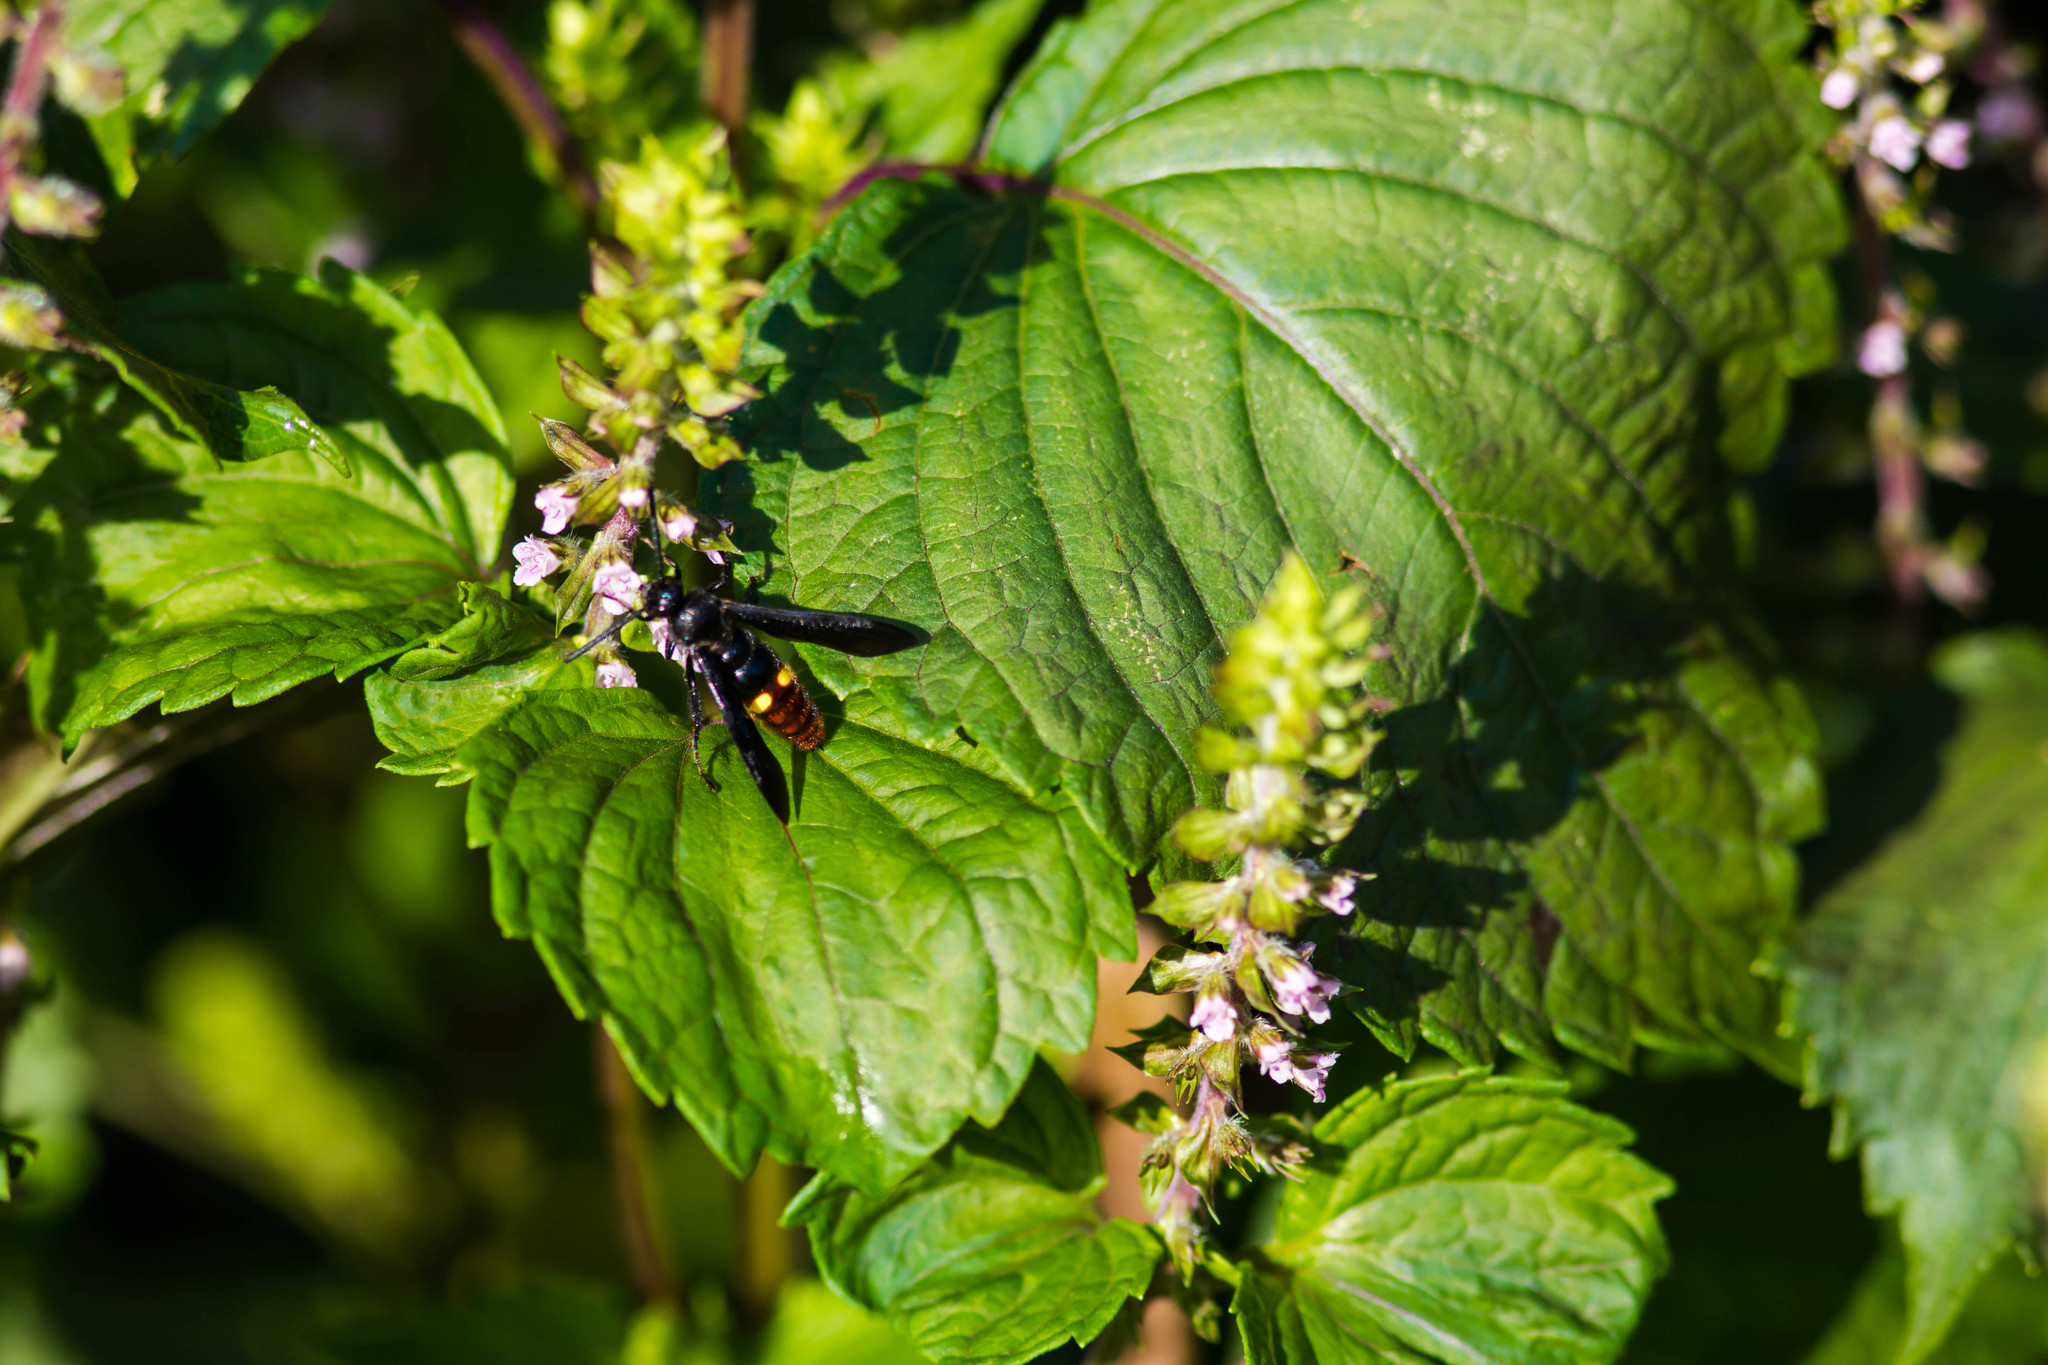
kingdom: Animalia
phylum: Arthropoda
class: Insecta
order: Hymenoptera
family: Scoliidae
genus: Scolia
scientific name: Scolia dubia
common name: Blue-winged scoliid wasp
